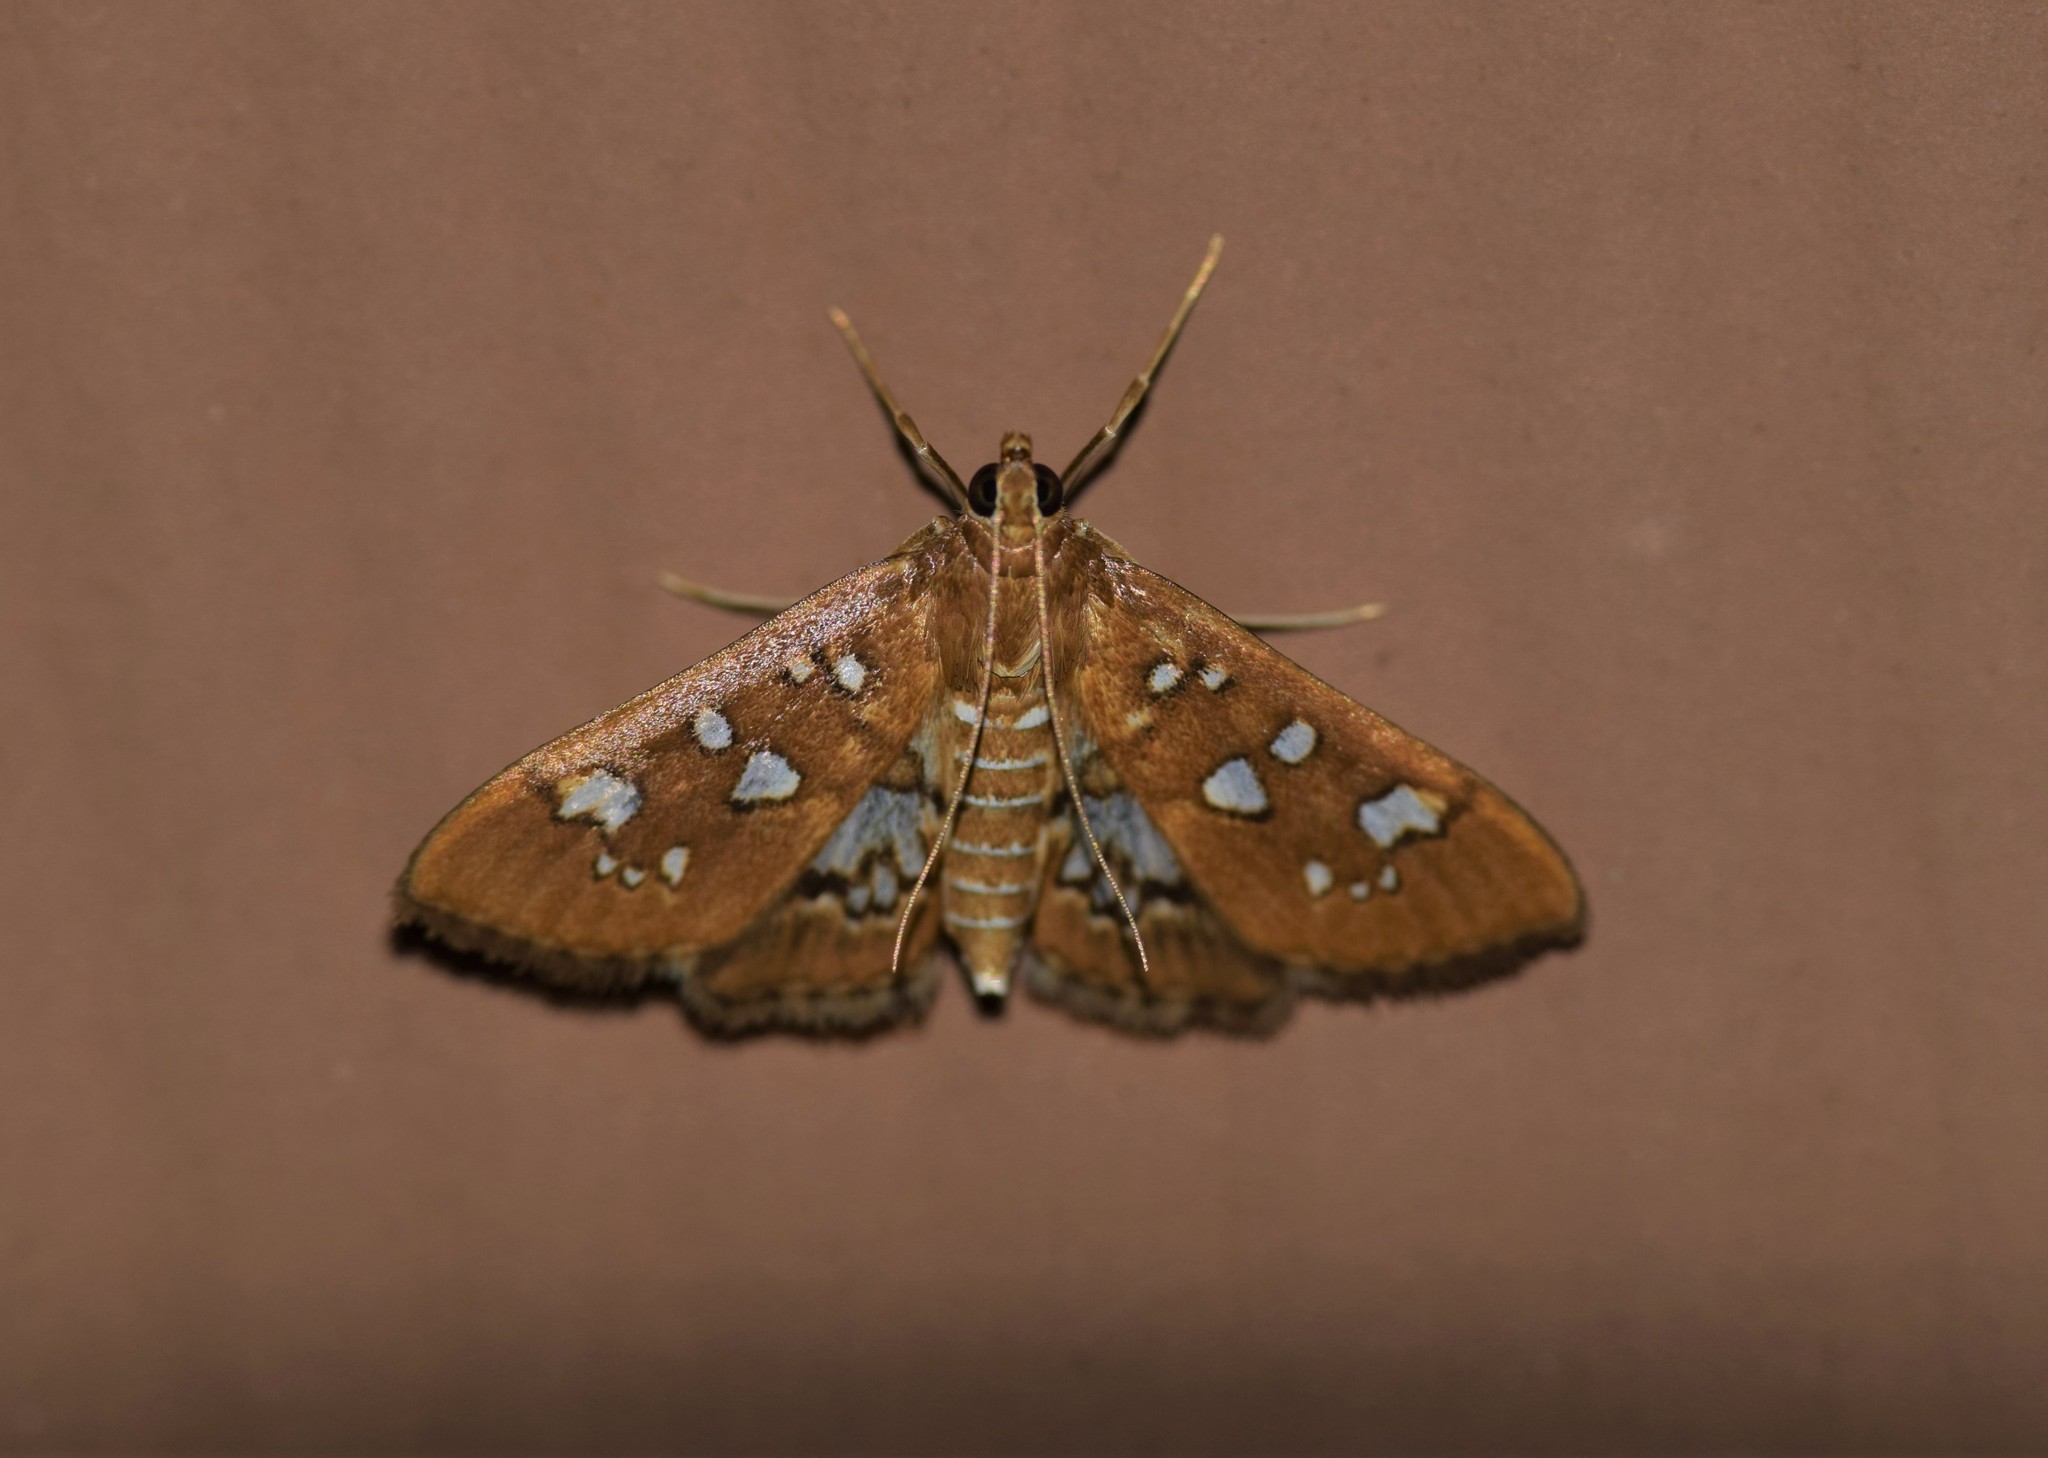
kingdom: Animalia
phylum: Arthropoda
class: Insecta
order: Lepidoptera
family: Crambidae
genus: Samea
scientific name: Samea baccatalis
